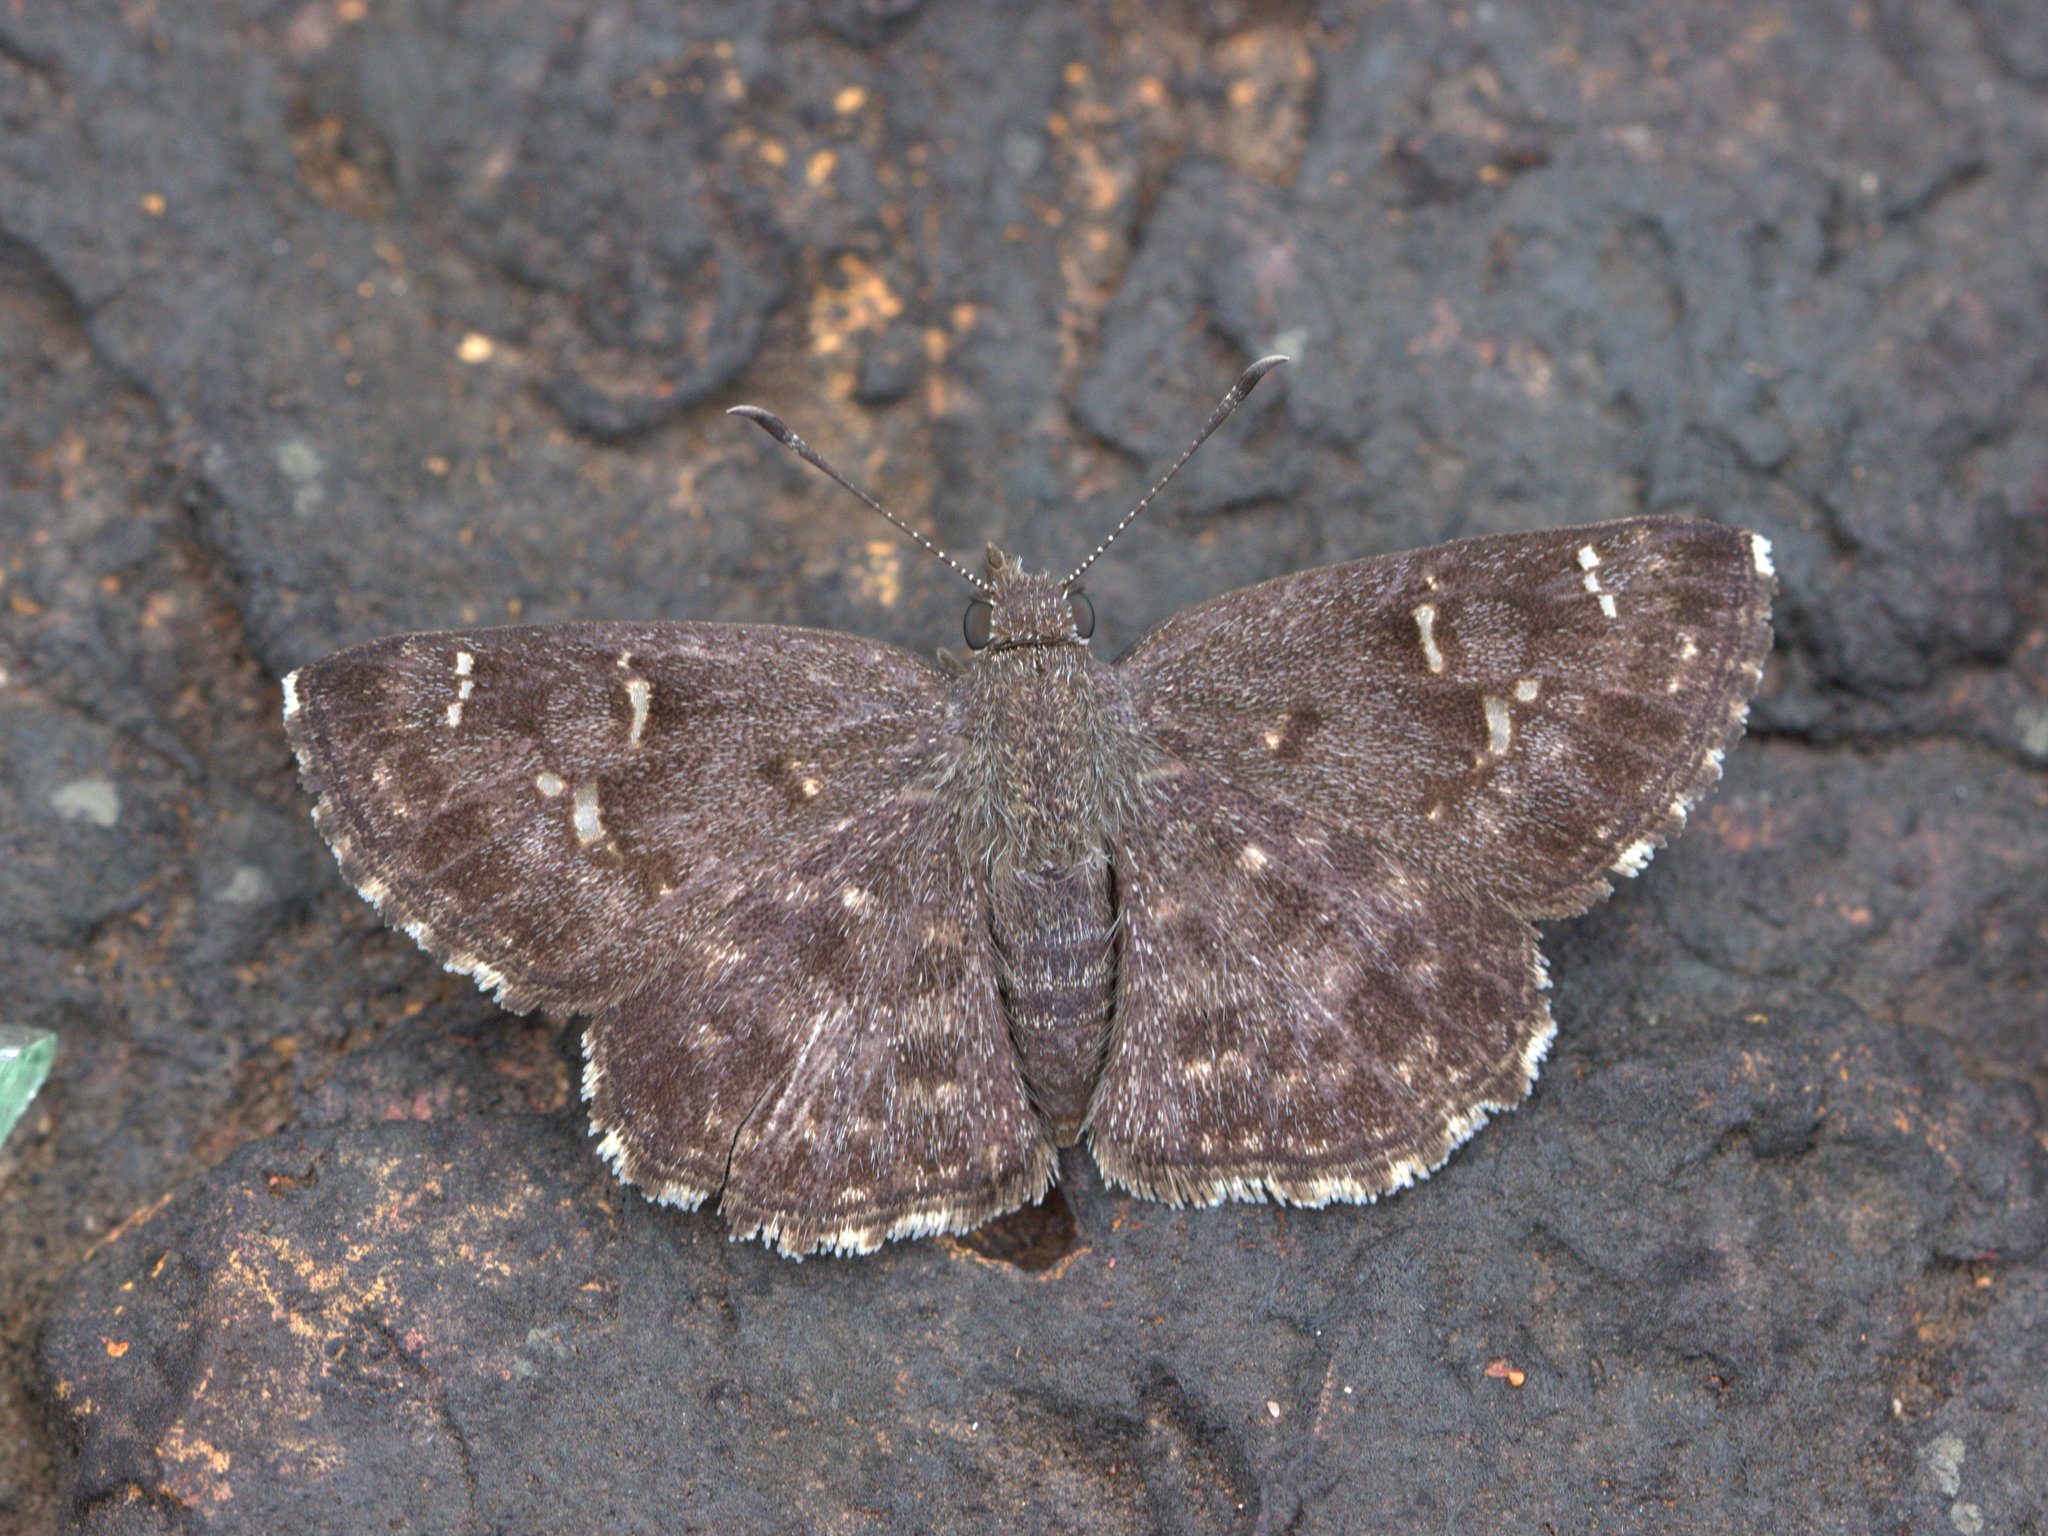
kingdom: Animalia
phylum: Arthropoda
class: Insecta
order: Lepidoptera
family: Hesperiidae
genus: Sarangesa
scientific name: Sarangesa purendra
